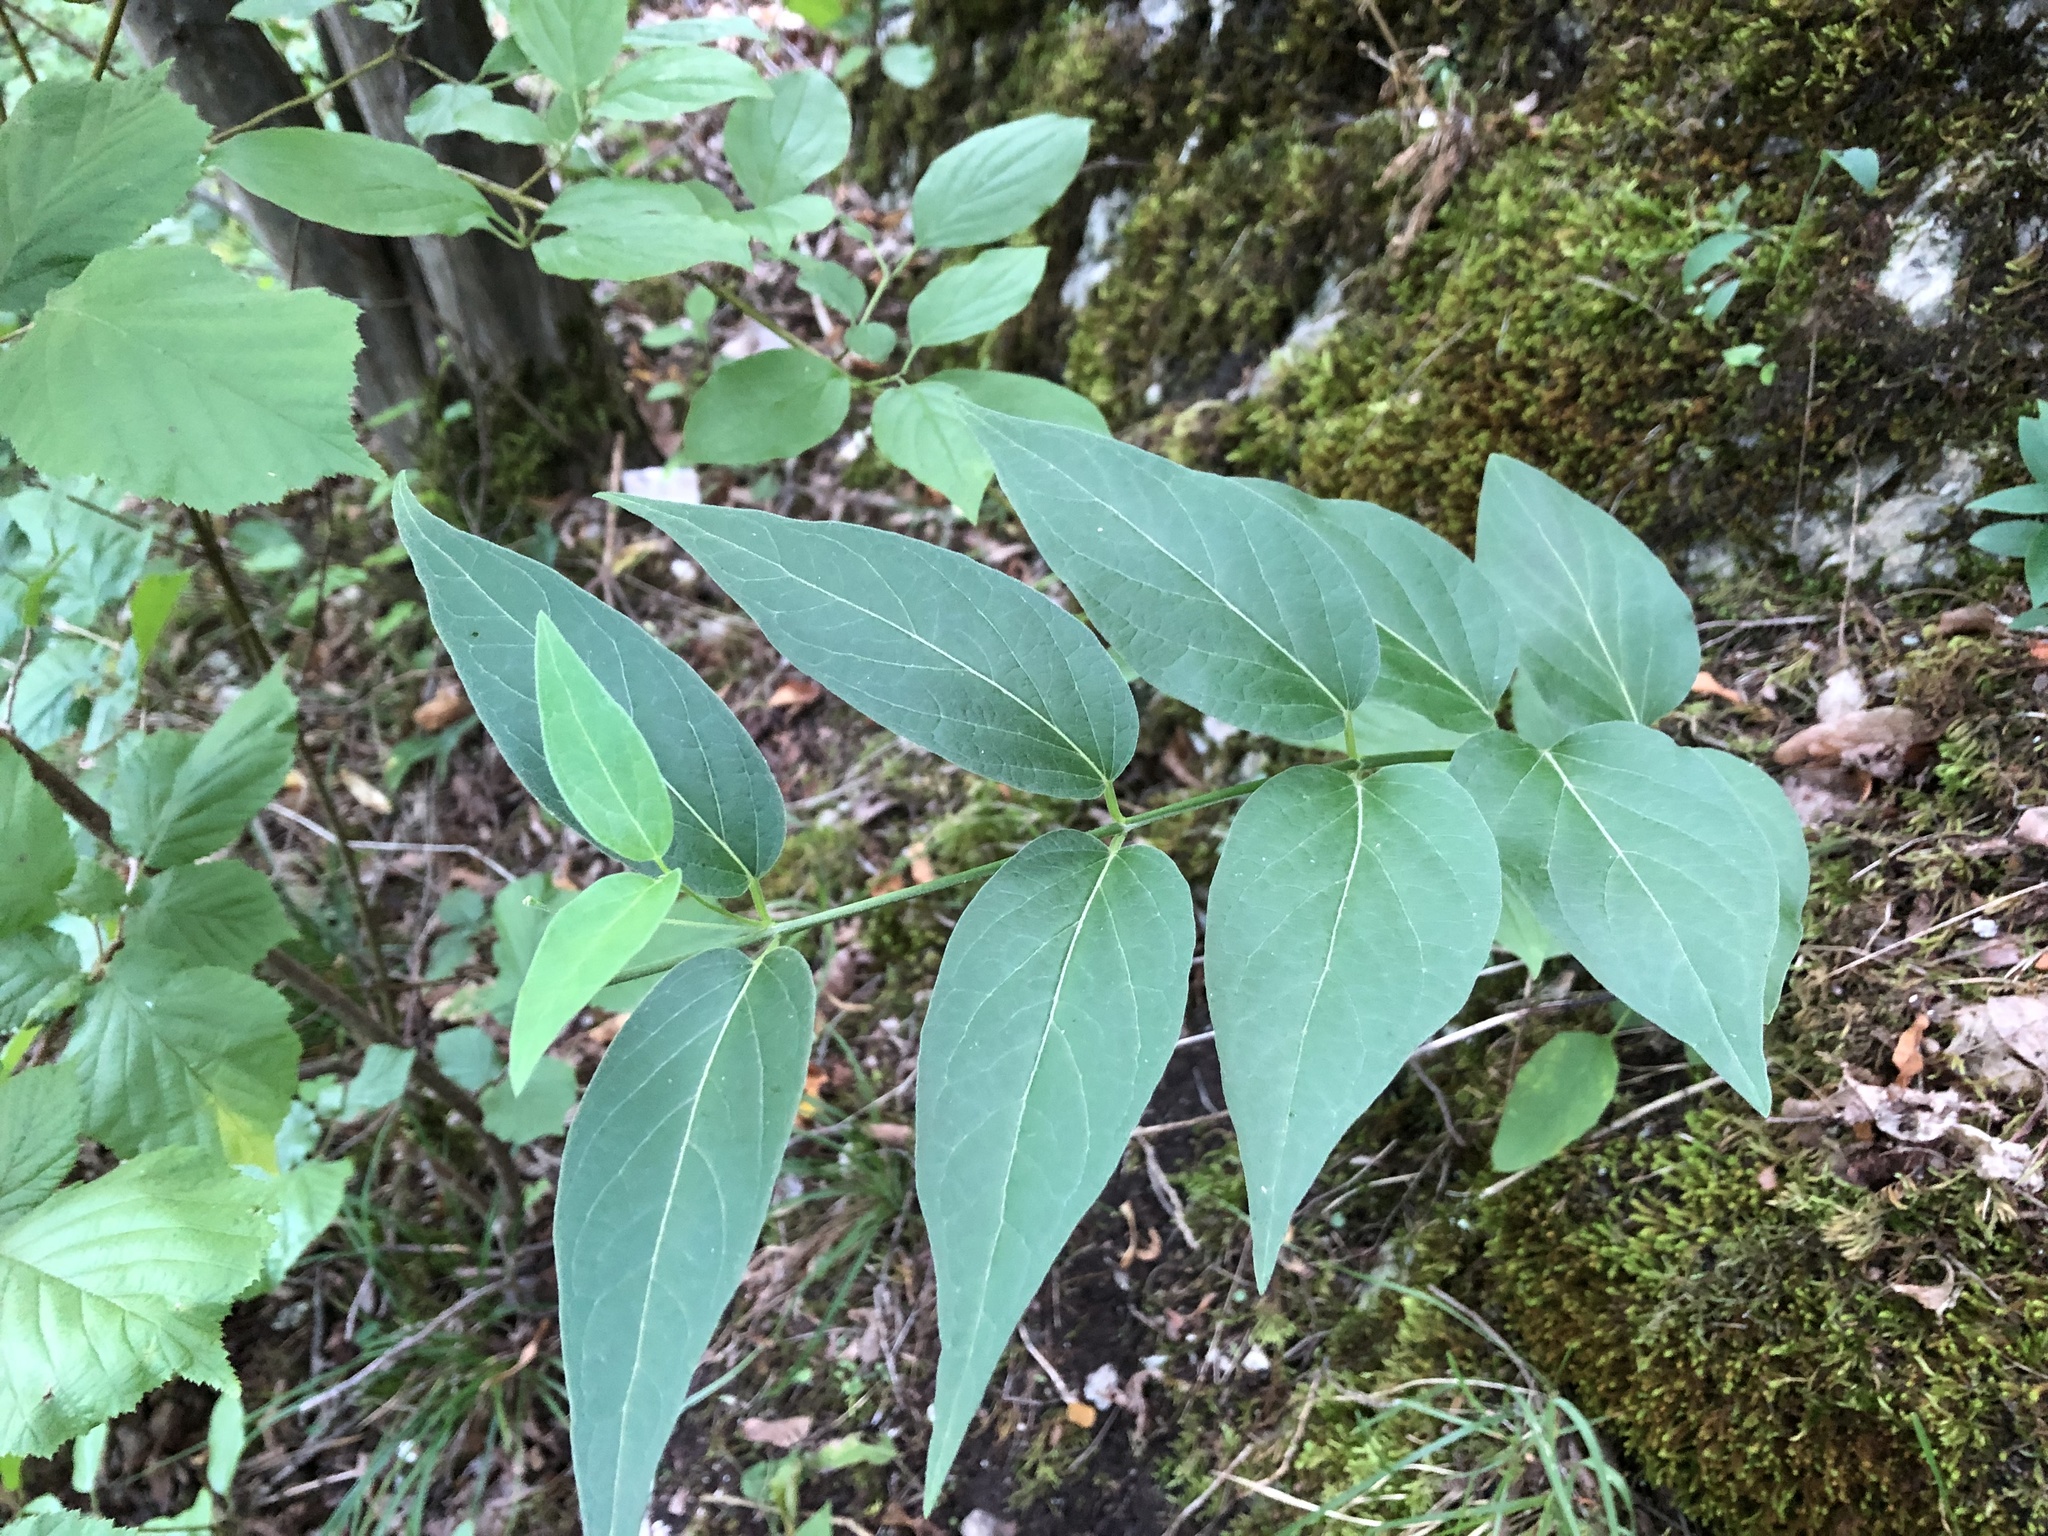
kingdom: Plantae
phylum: Tracheophyta
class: Magnoliopsida
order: Gentianales
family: Apocynaceae
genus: Vincetoxicum
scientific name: Vincetoxicum hirundinaria
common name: White swallowwort
